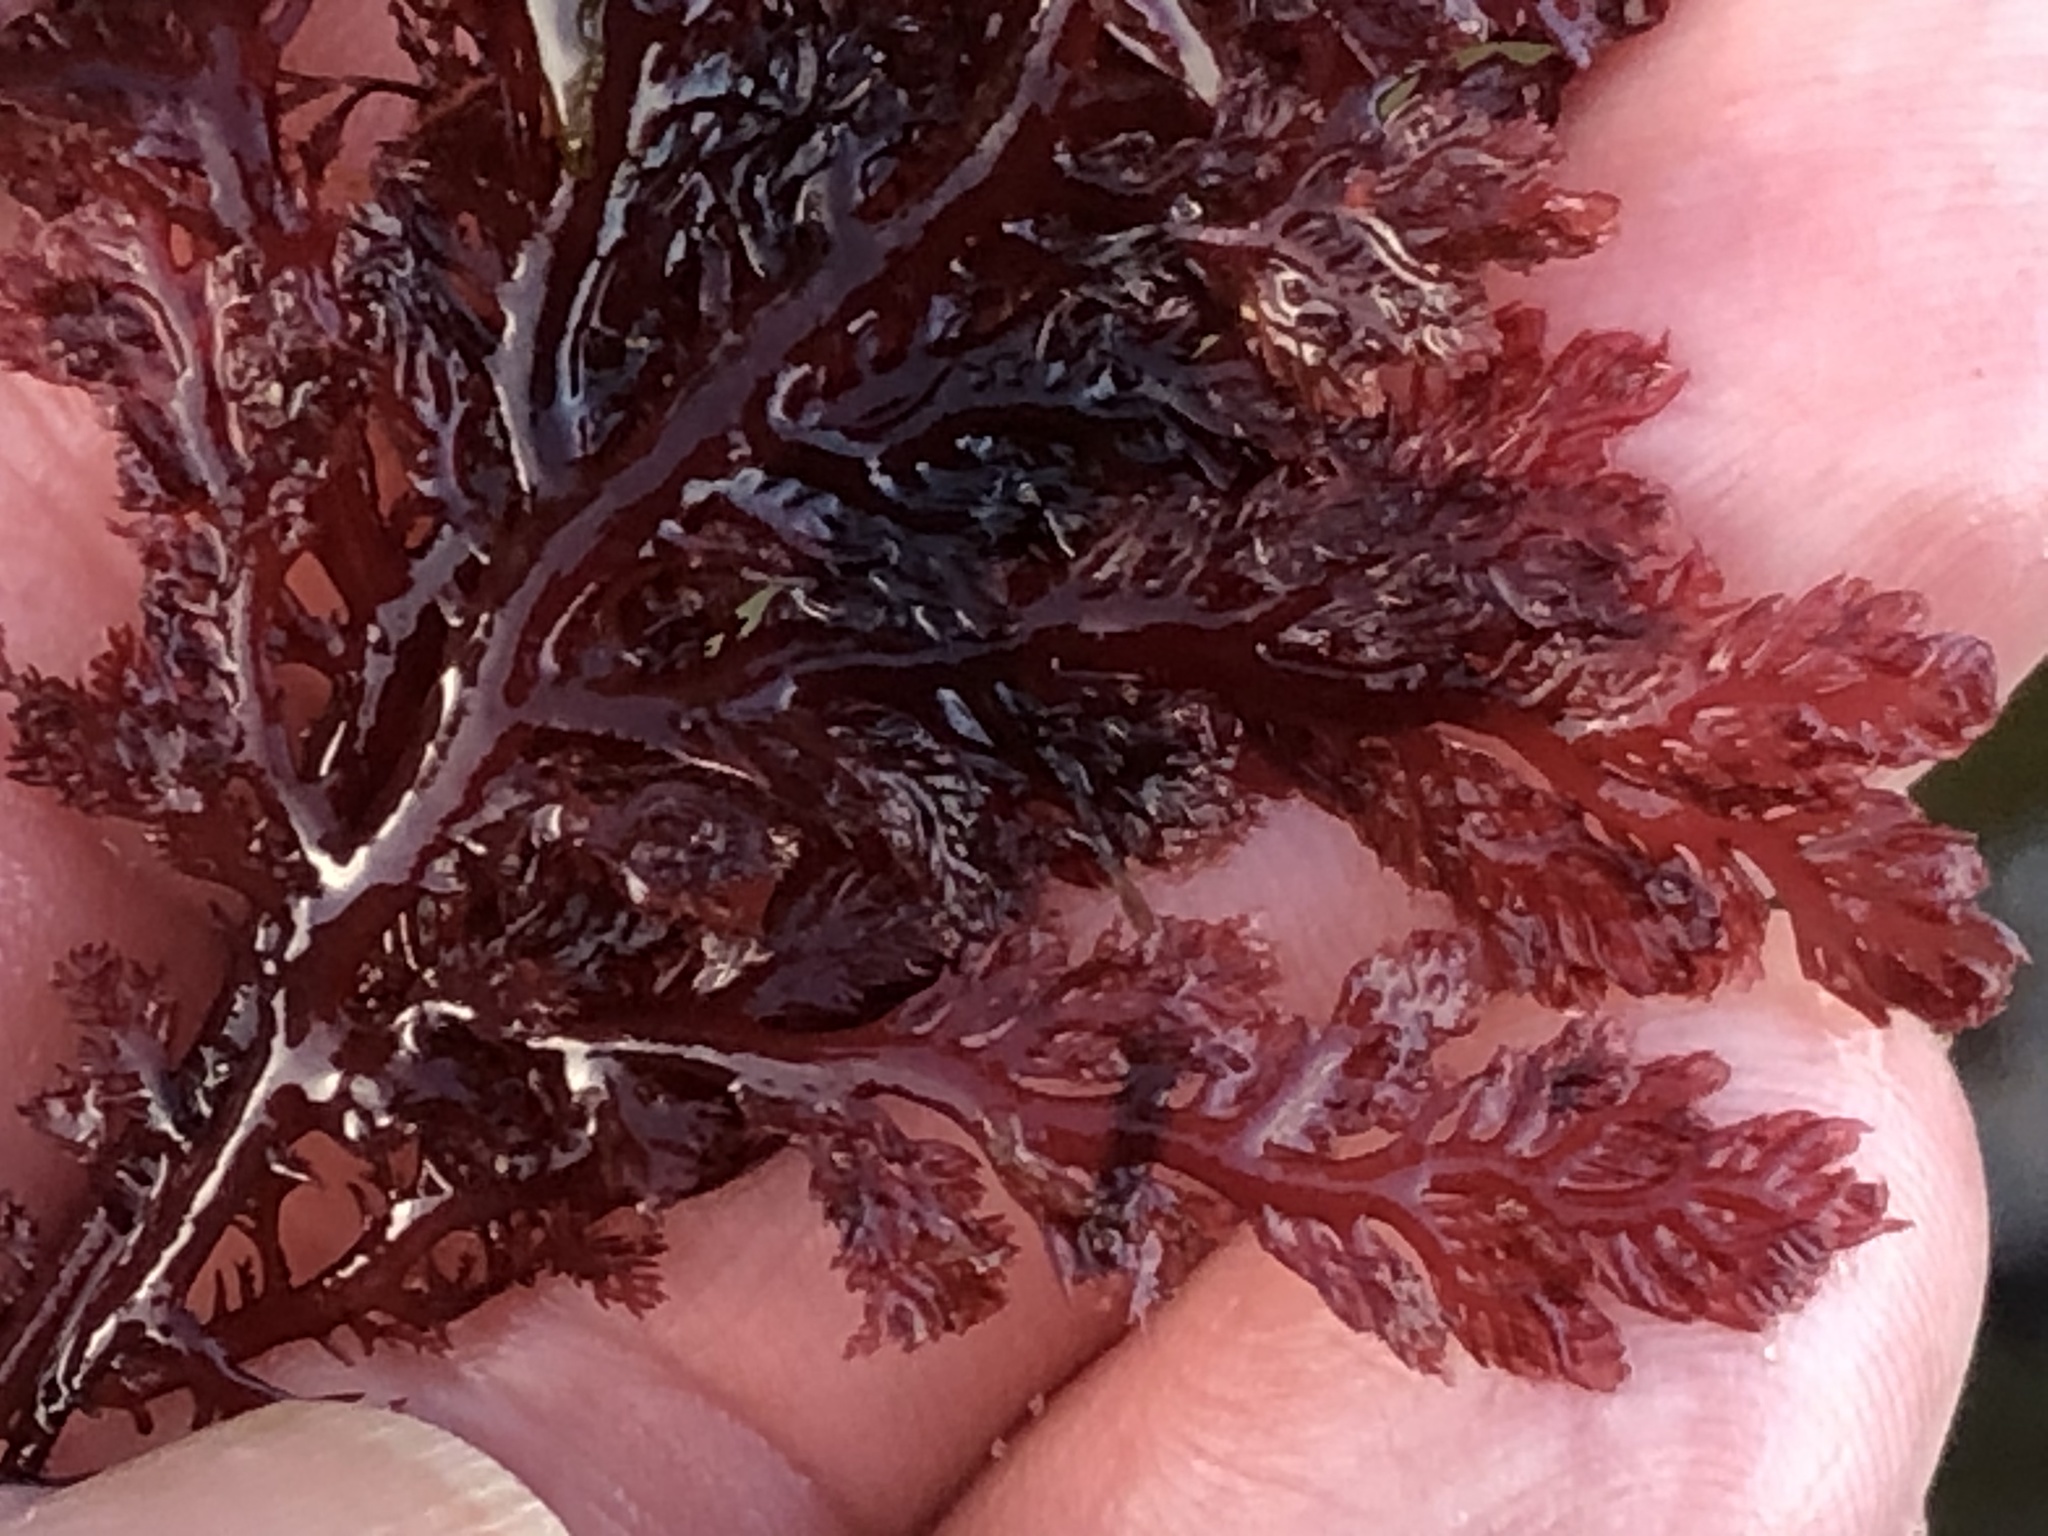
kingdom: Plantae
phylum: Rhodophyta
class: Florideophyceae
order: Plocamiales
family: Plocamiaceae
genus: Plocamium
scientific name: Plocamium cartilagineum
